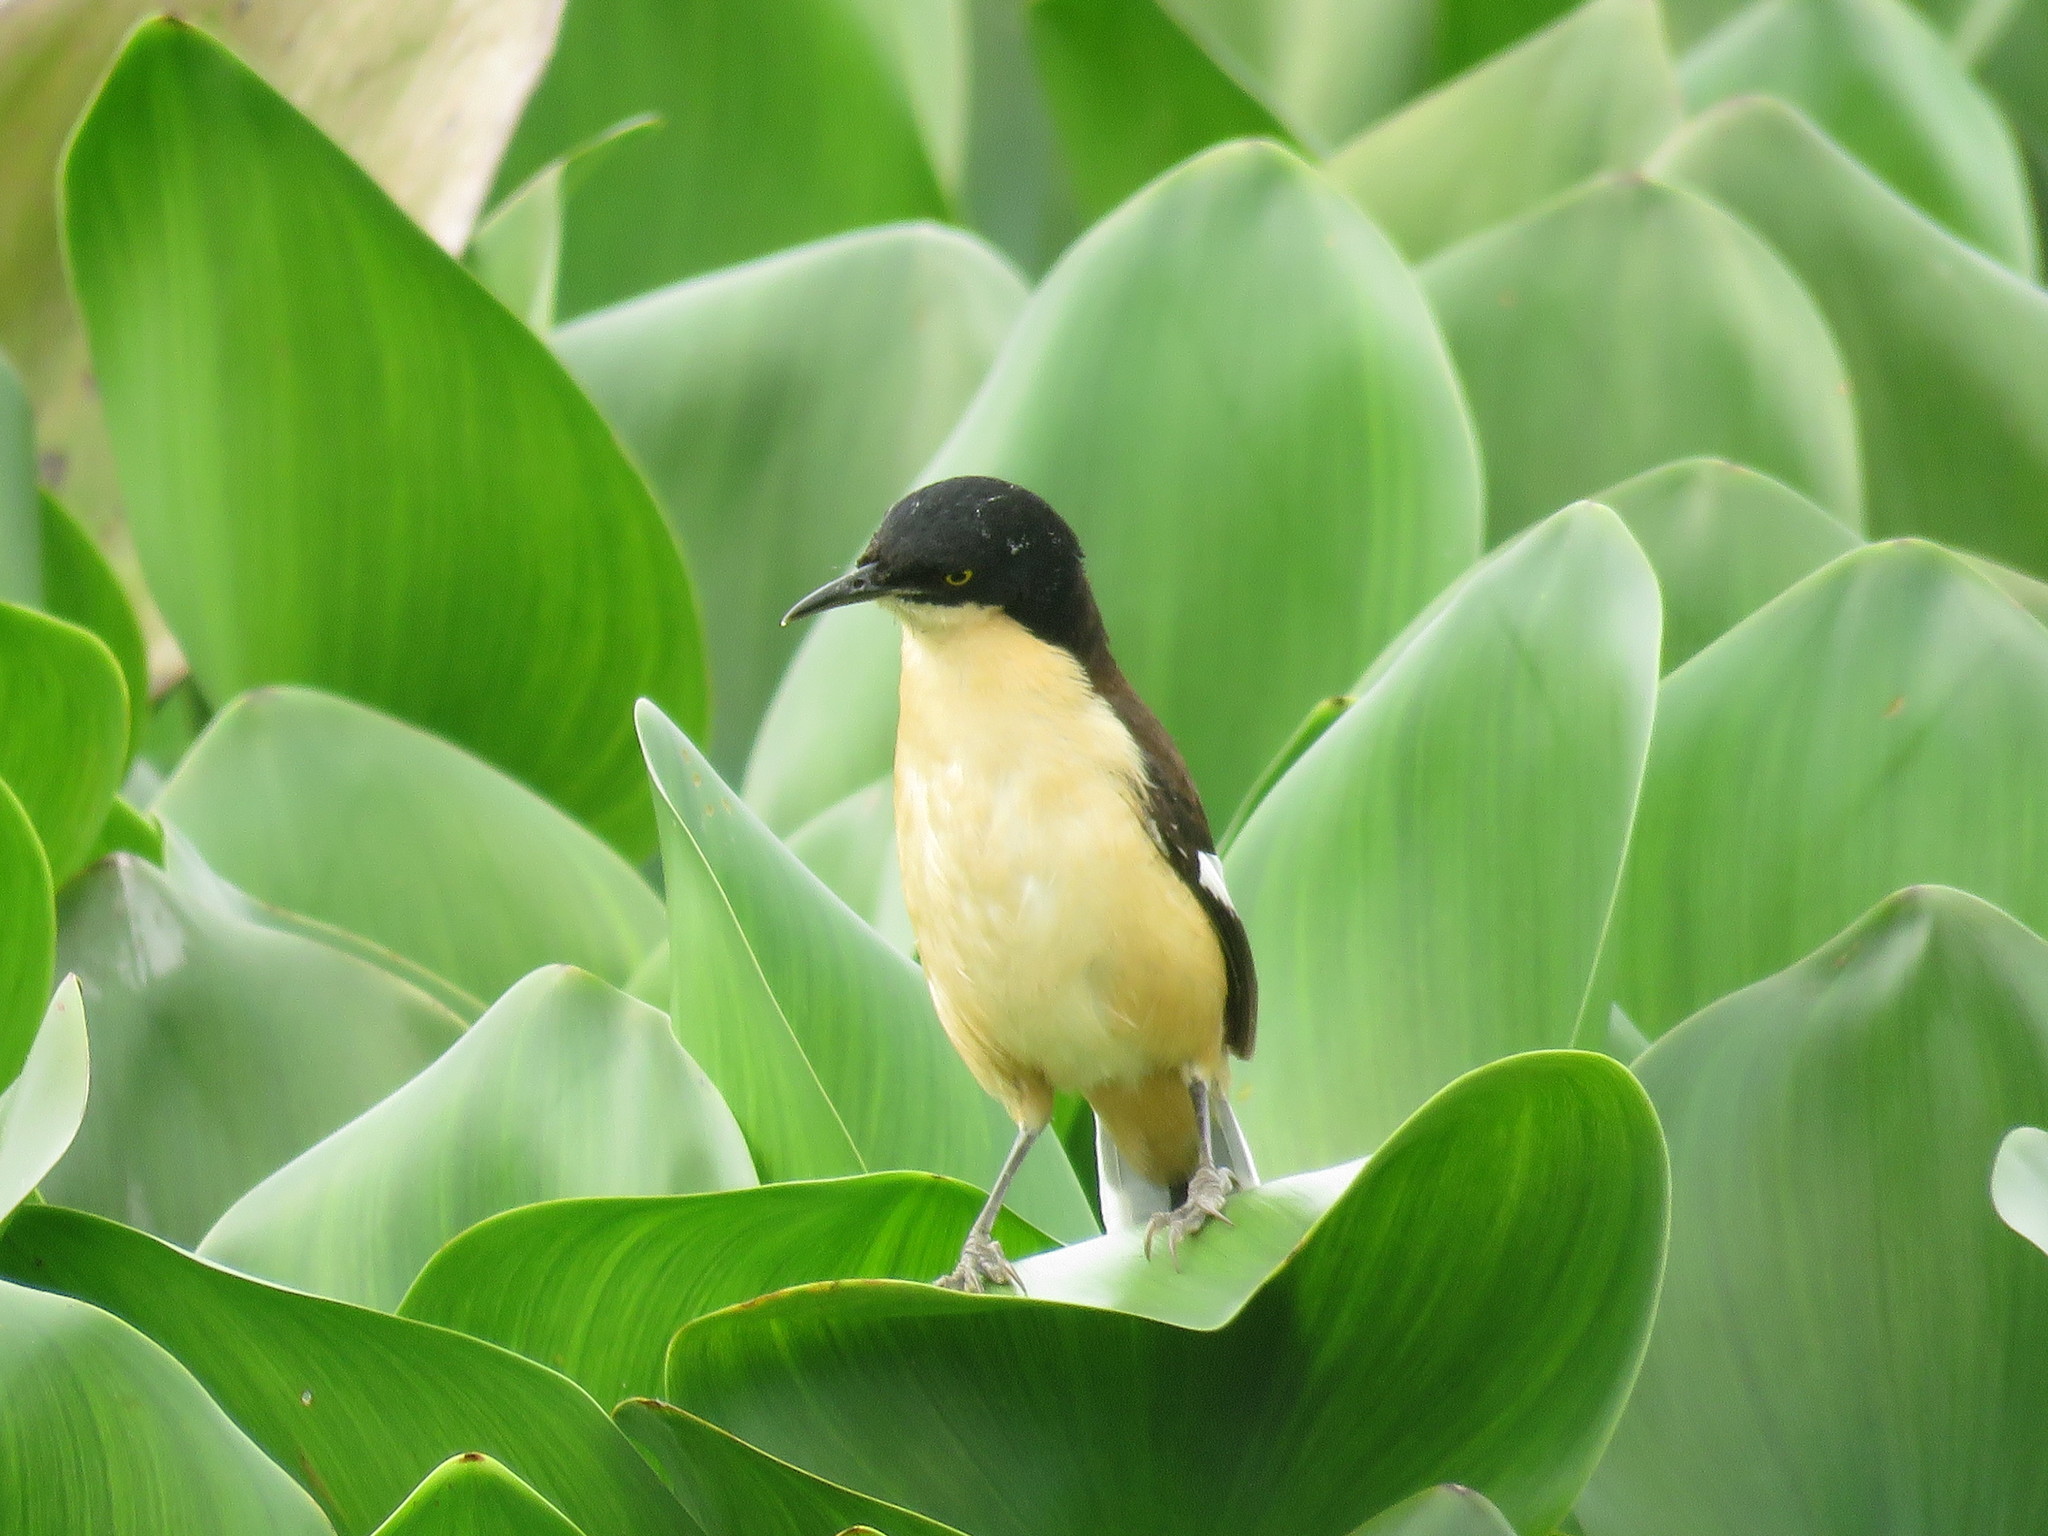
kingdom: Animalia
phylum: Chordata
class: Aves
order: Passeriformes
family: Donacobiidae
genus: Donacobius
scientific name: Donacobius atricapilla
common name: Black-capped donacobius
